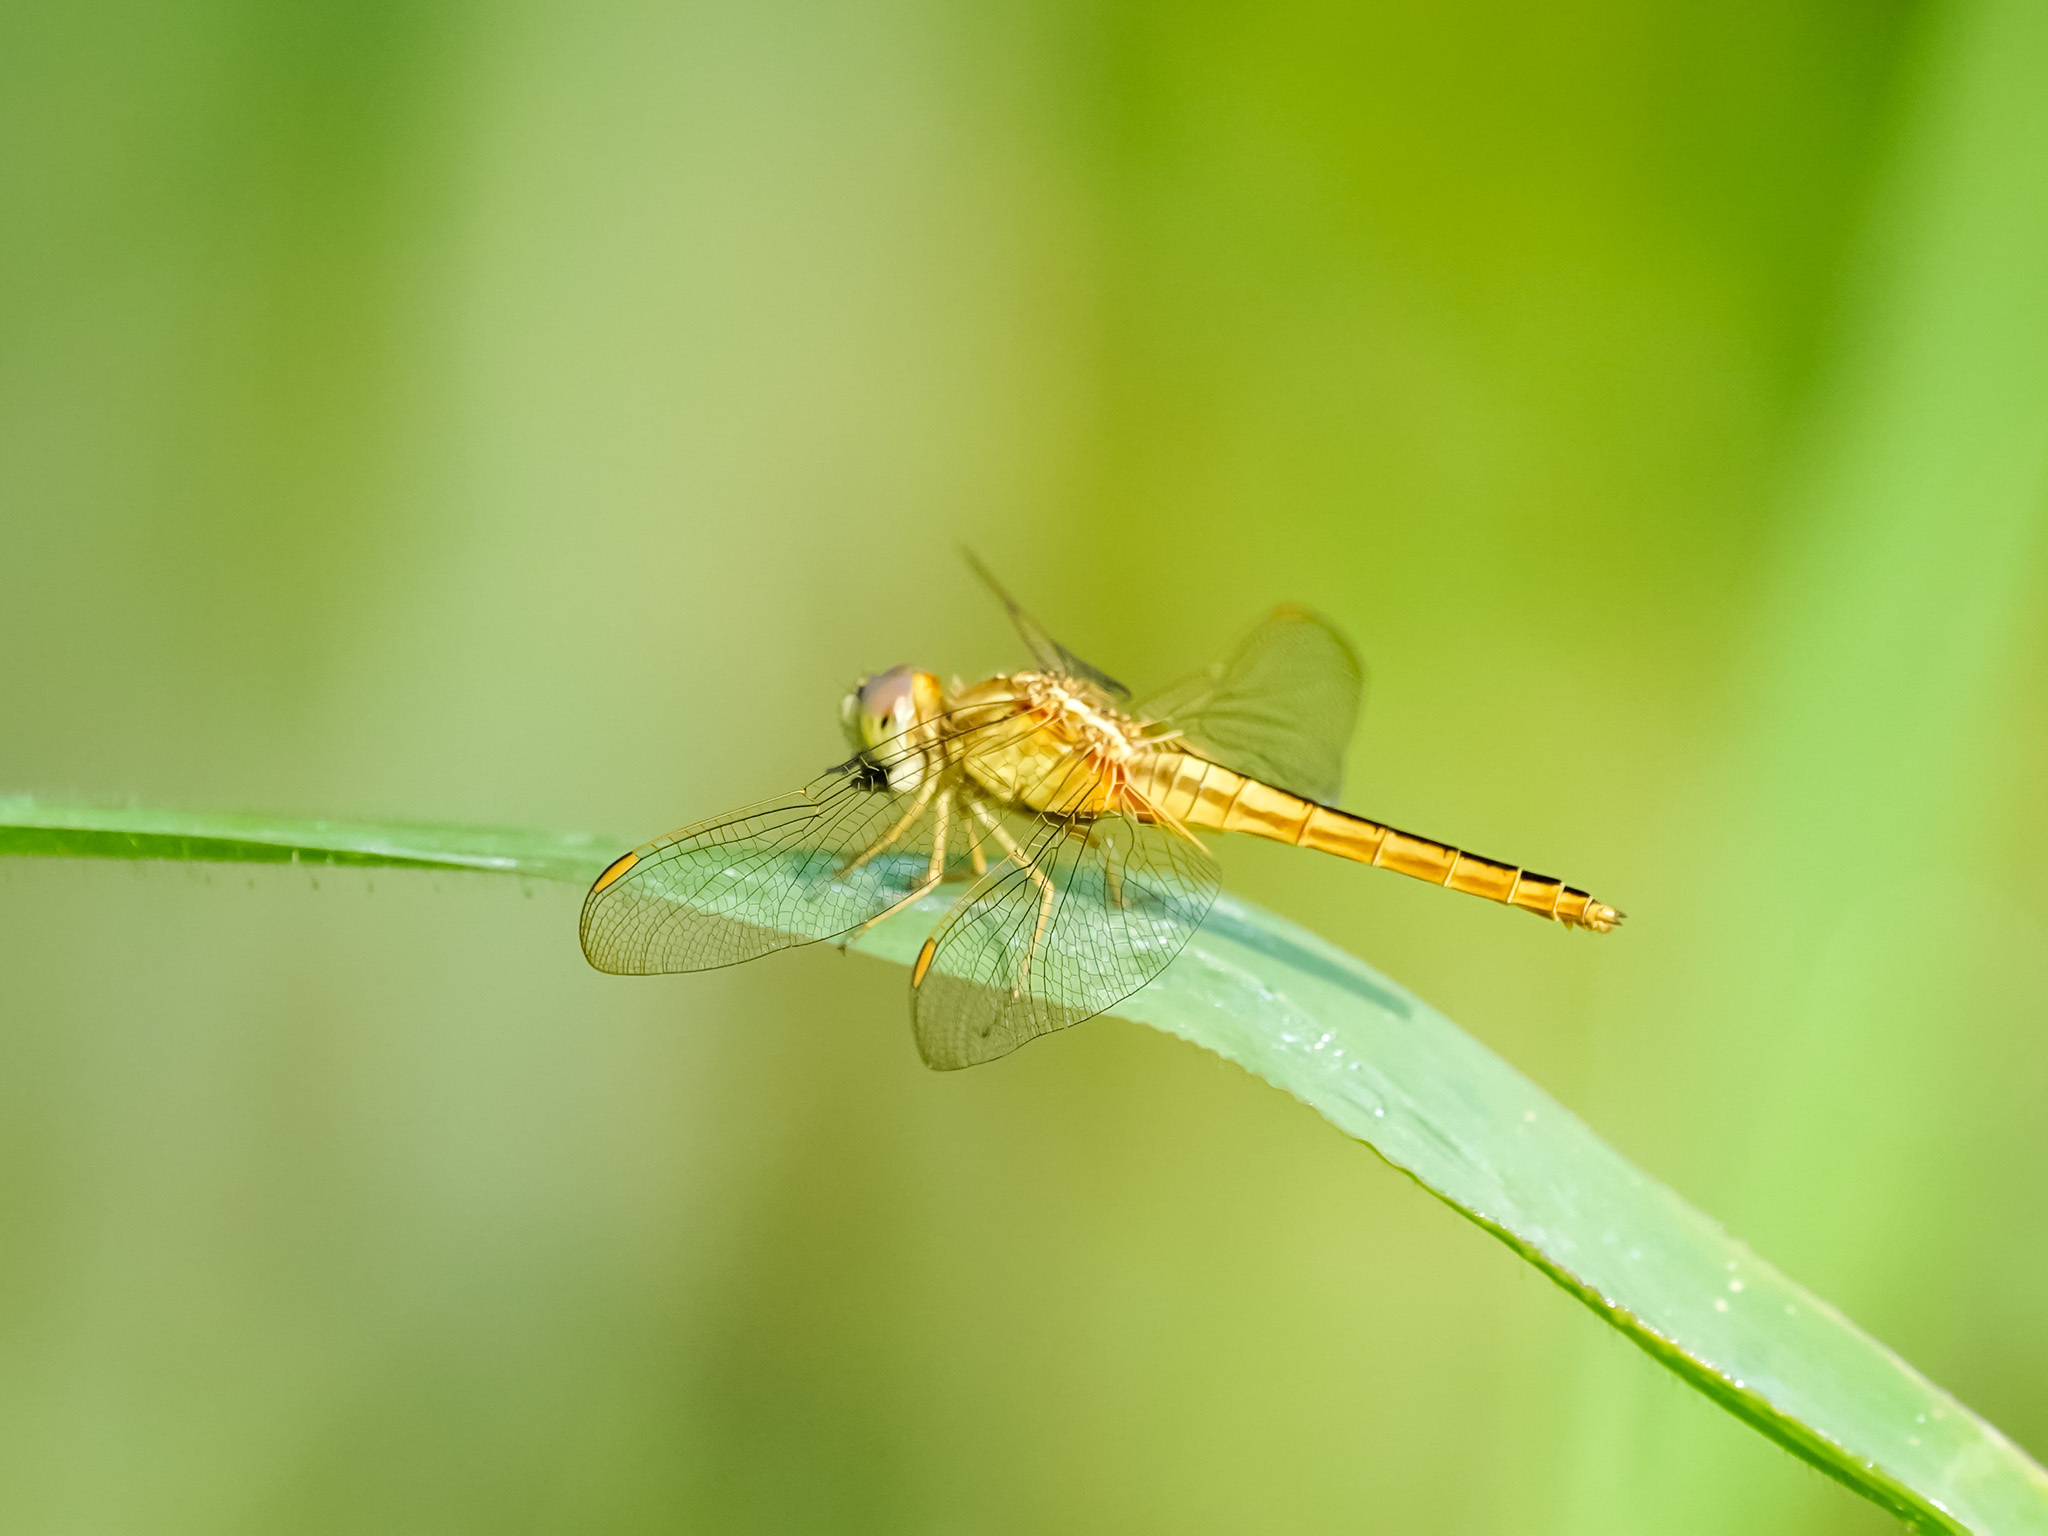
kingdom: Animalia
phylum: Arthropoda
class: Insecta
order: Odonata
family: Libellulidae
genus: Crocothemis
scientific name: Crocothemis servilia
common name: Scarlet skimmer
